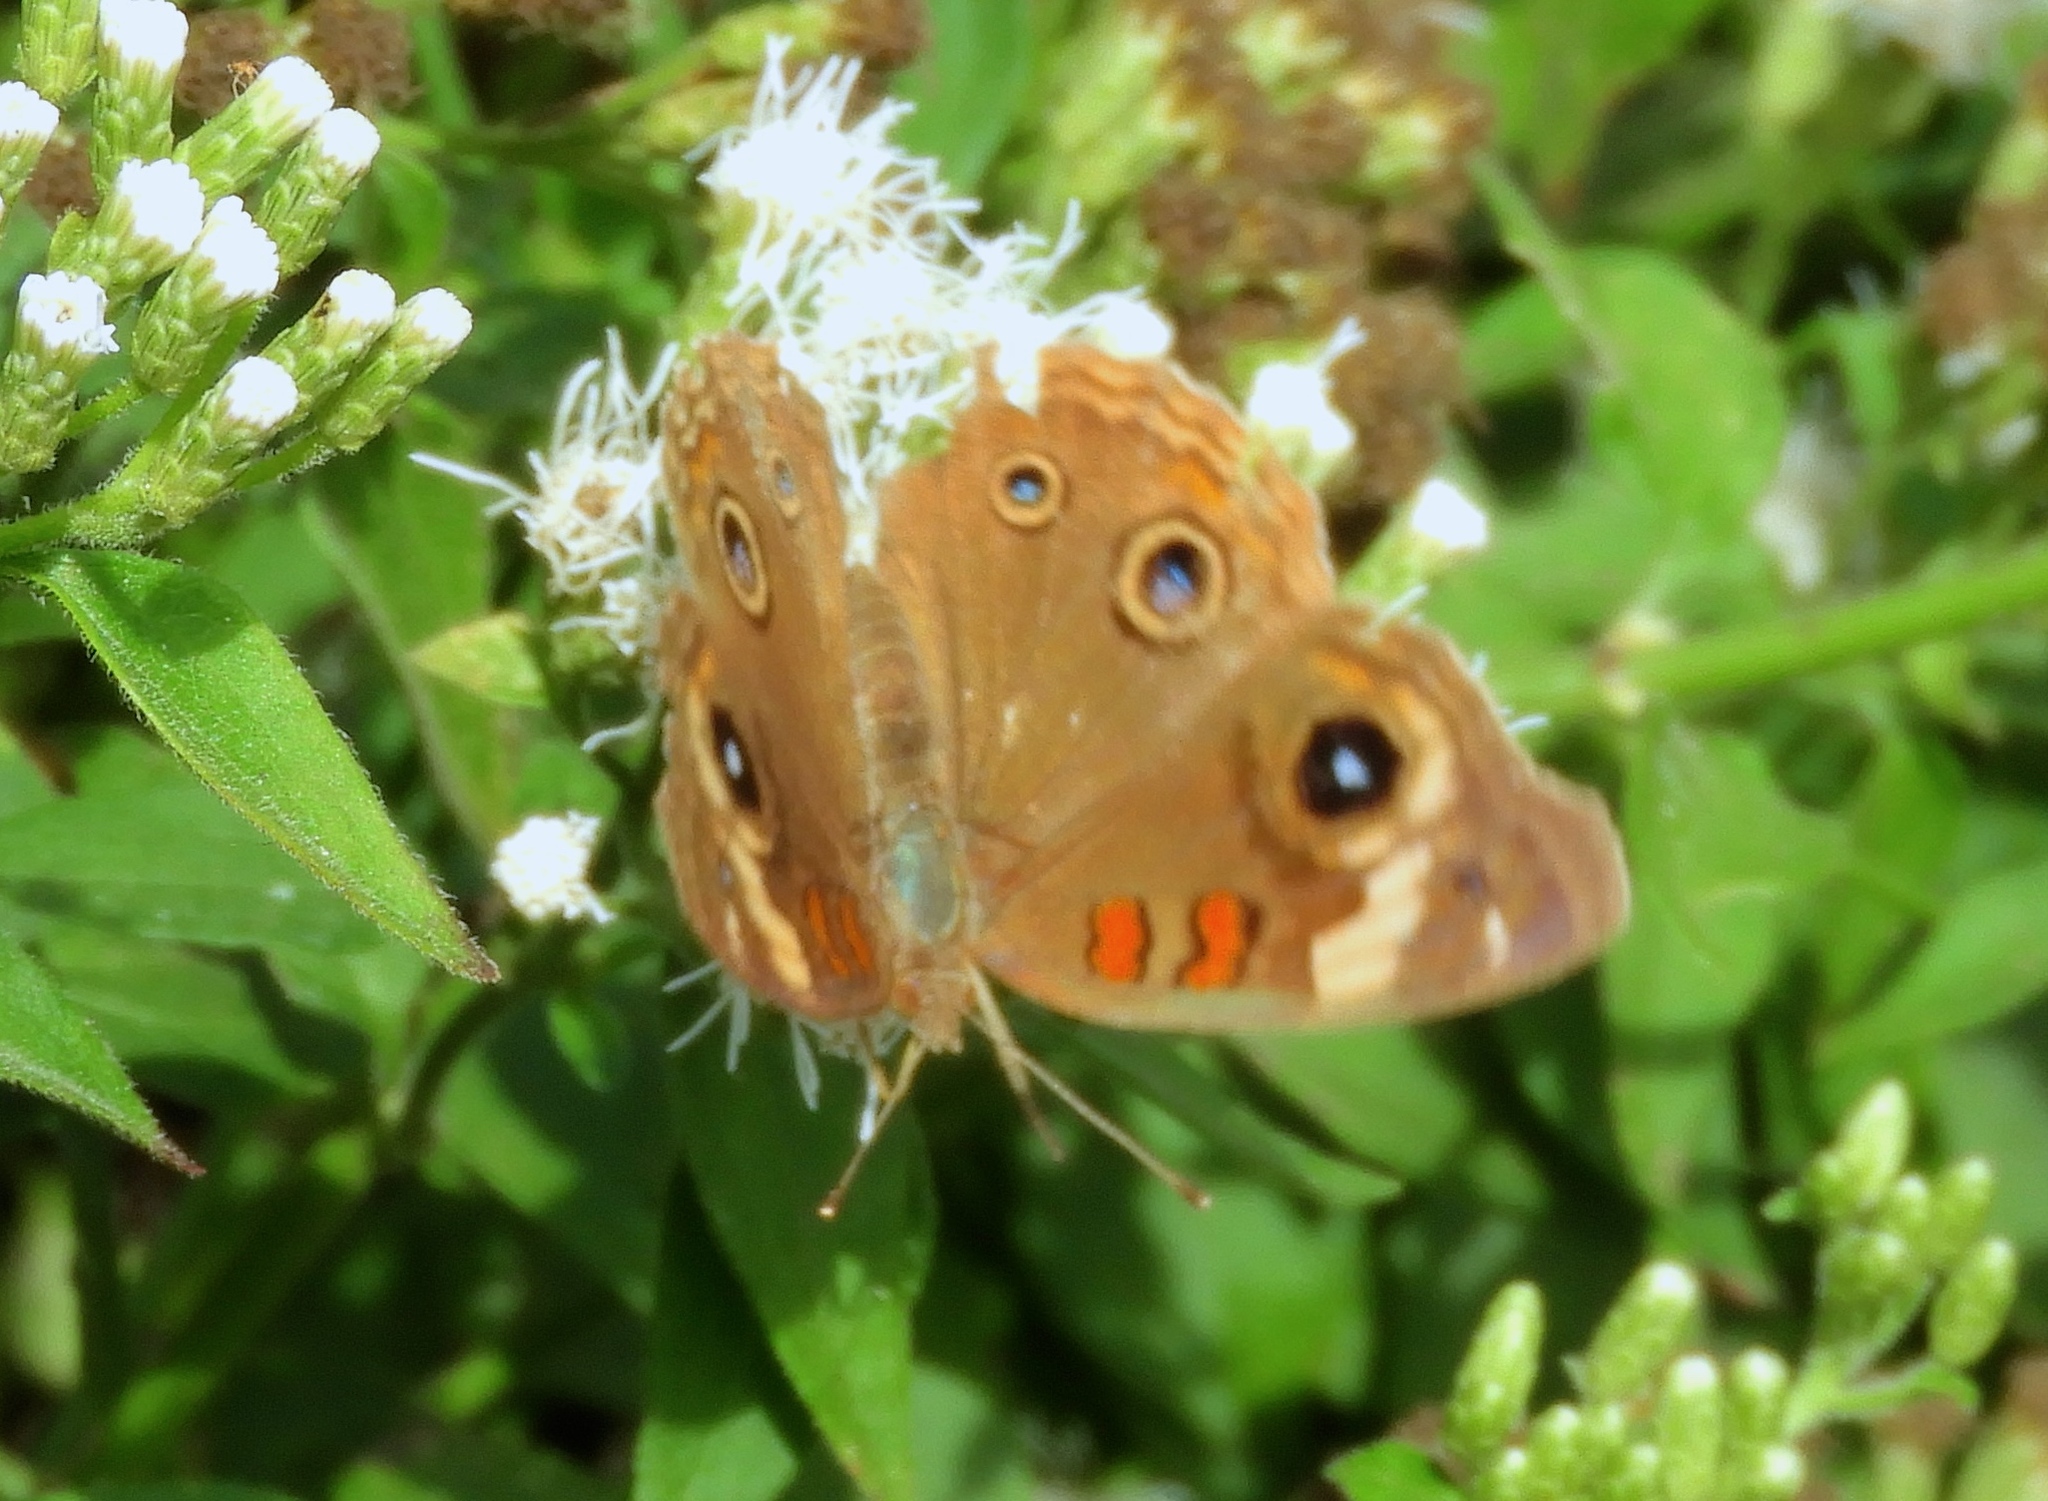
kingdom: Animalia
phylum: Arthropoda
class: Insecta
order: Lepidoptera
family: Nymphalidae
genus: Junonia
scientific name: Junonia coenia
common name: Common buckeye
